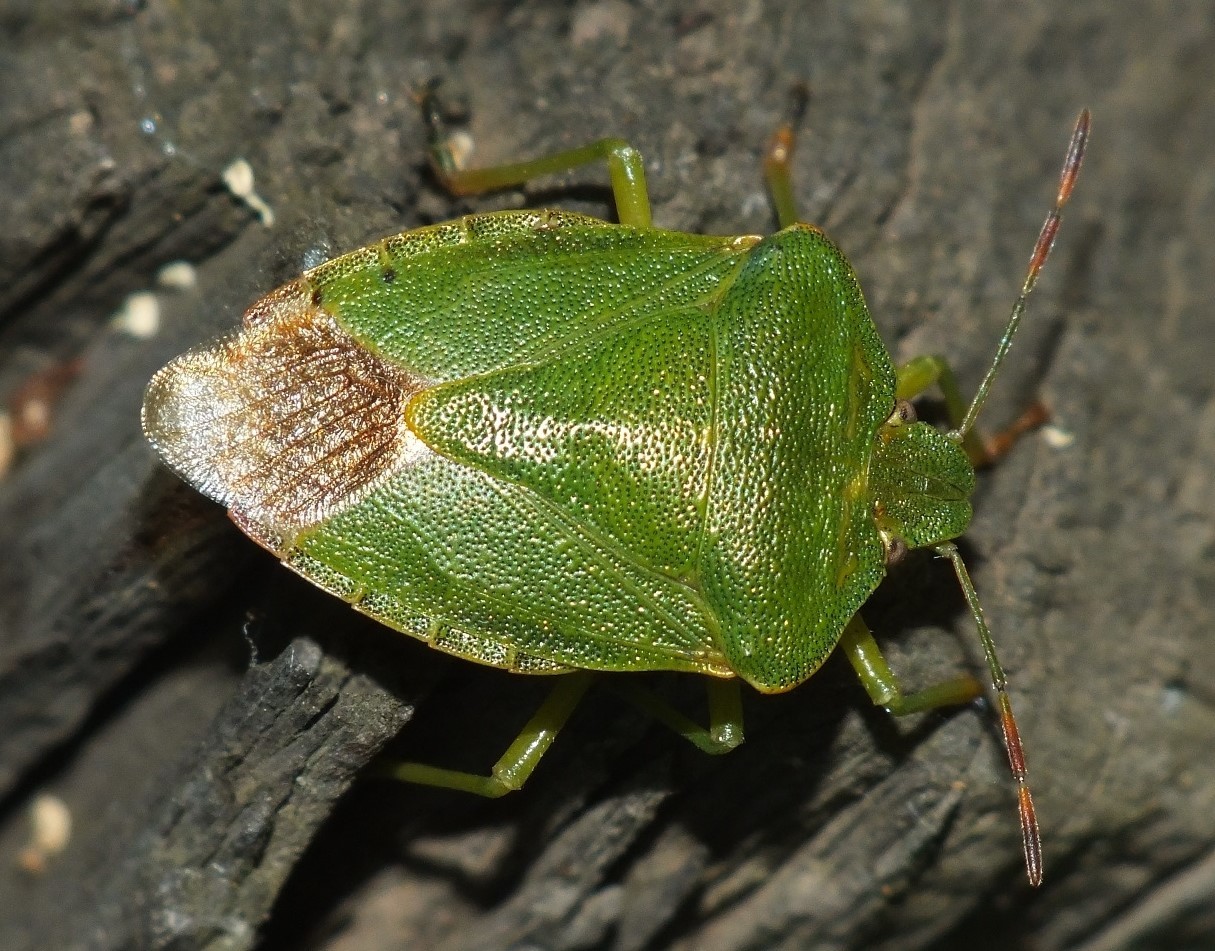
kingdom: Animalia
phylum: Arthropoda
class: Insecta
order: Hemiptera
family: Pentatomidae
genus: Palomena
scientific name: Palomena prasina
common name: Green shieldbug
